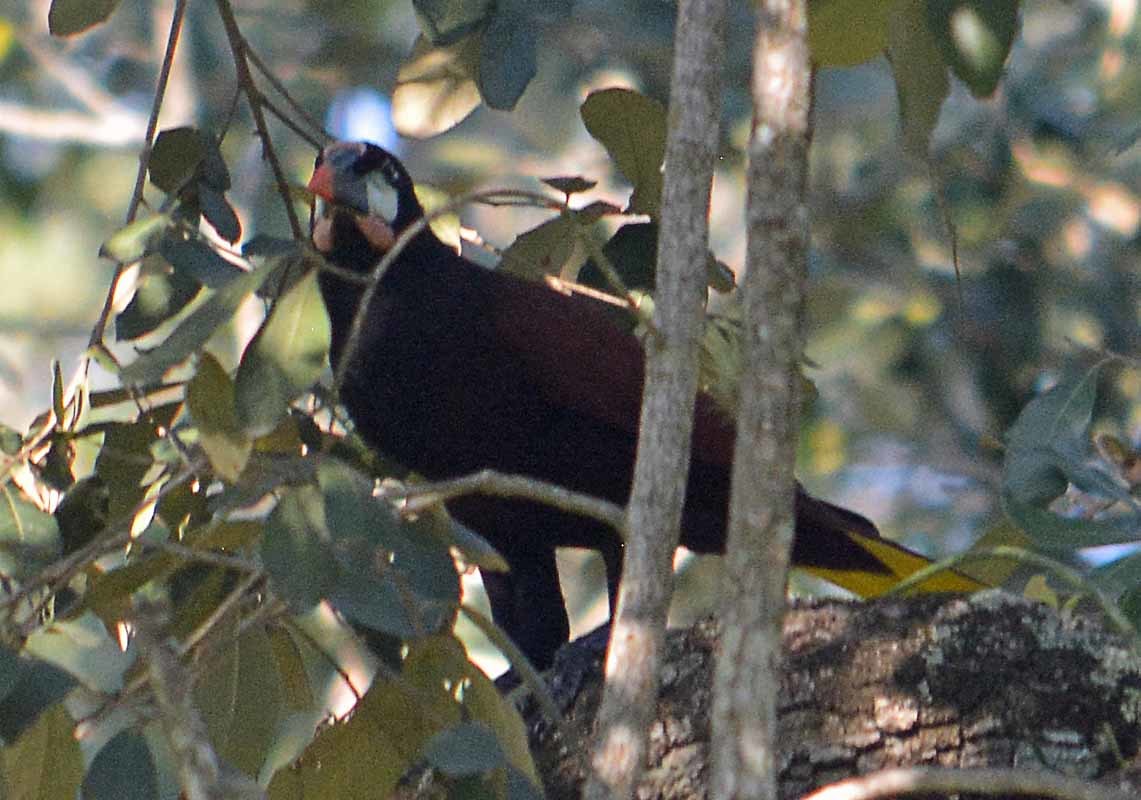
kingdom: Animalia
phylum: Chordata
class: Aves
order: Passeriformes
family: Icteridae
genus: Psarocolius
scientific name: Psarocolius montezuma
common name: Montezuma oropendola
